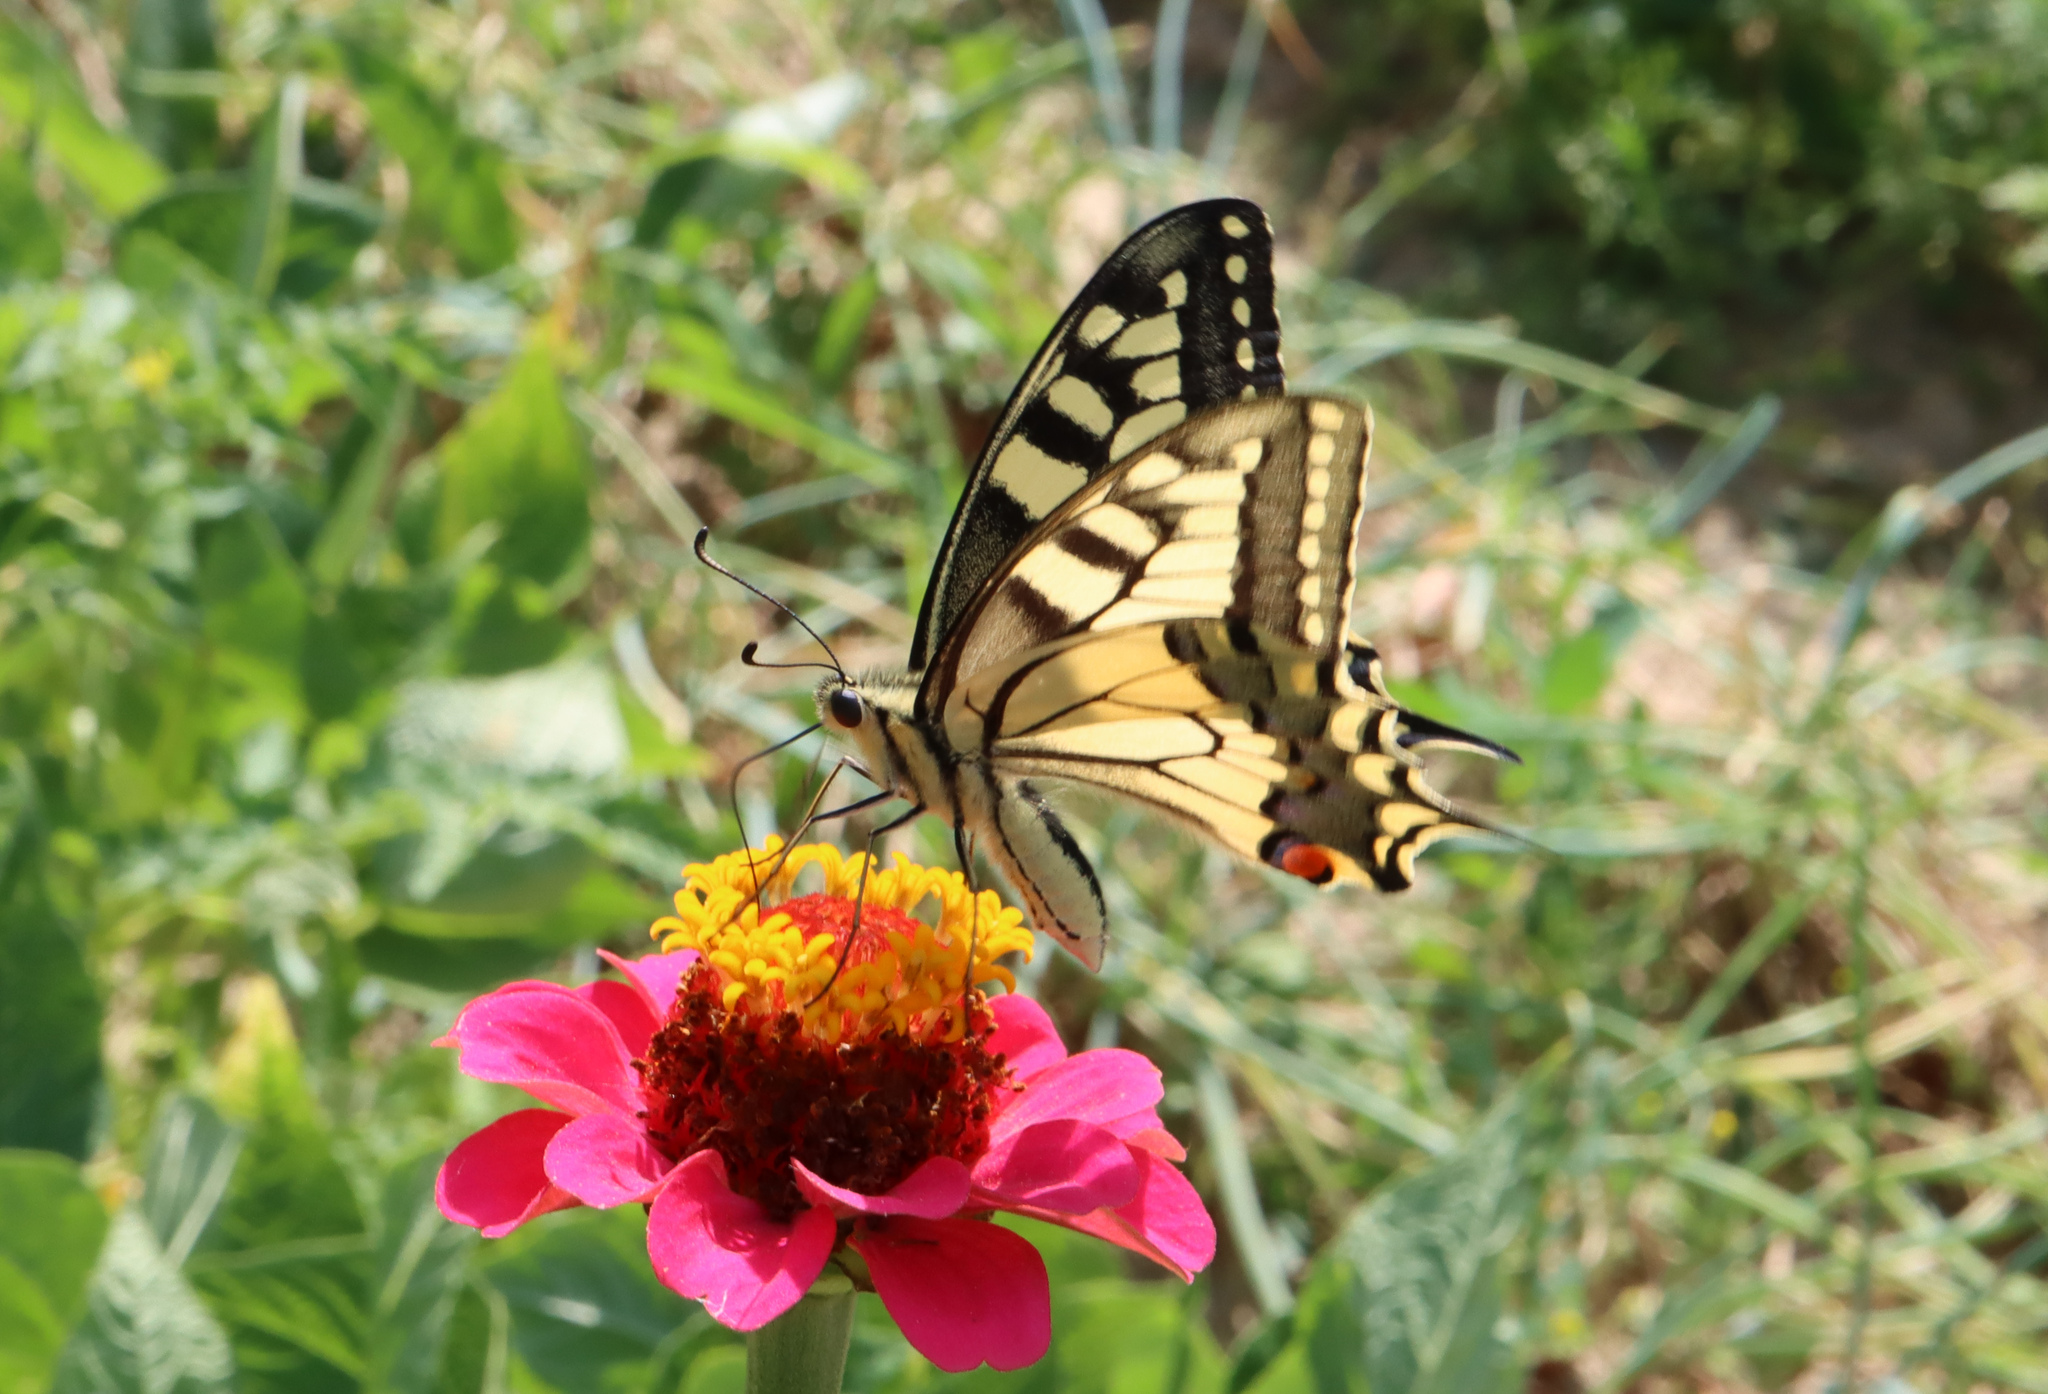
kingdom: Animalia
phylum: Arthropoda
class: Insecta
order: Lepidoptera
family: Papilionidae
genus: Papilio
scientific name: Papilio machaon
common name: Swallowtail
